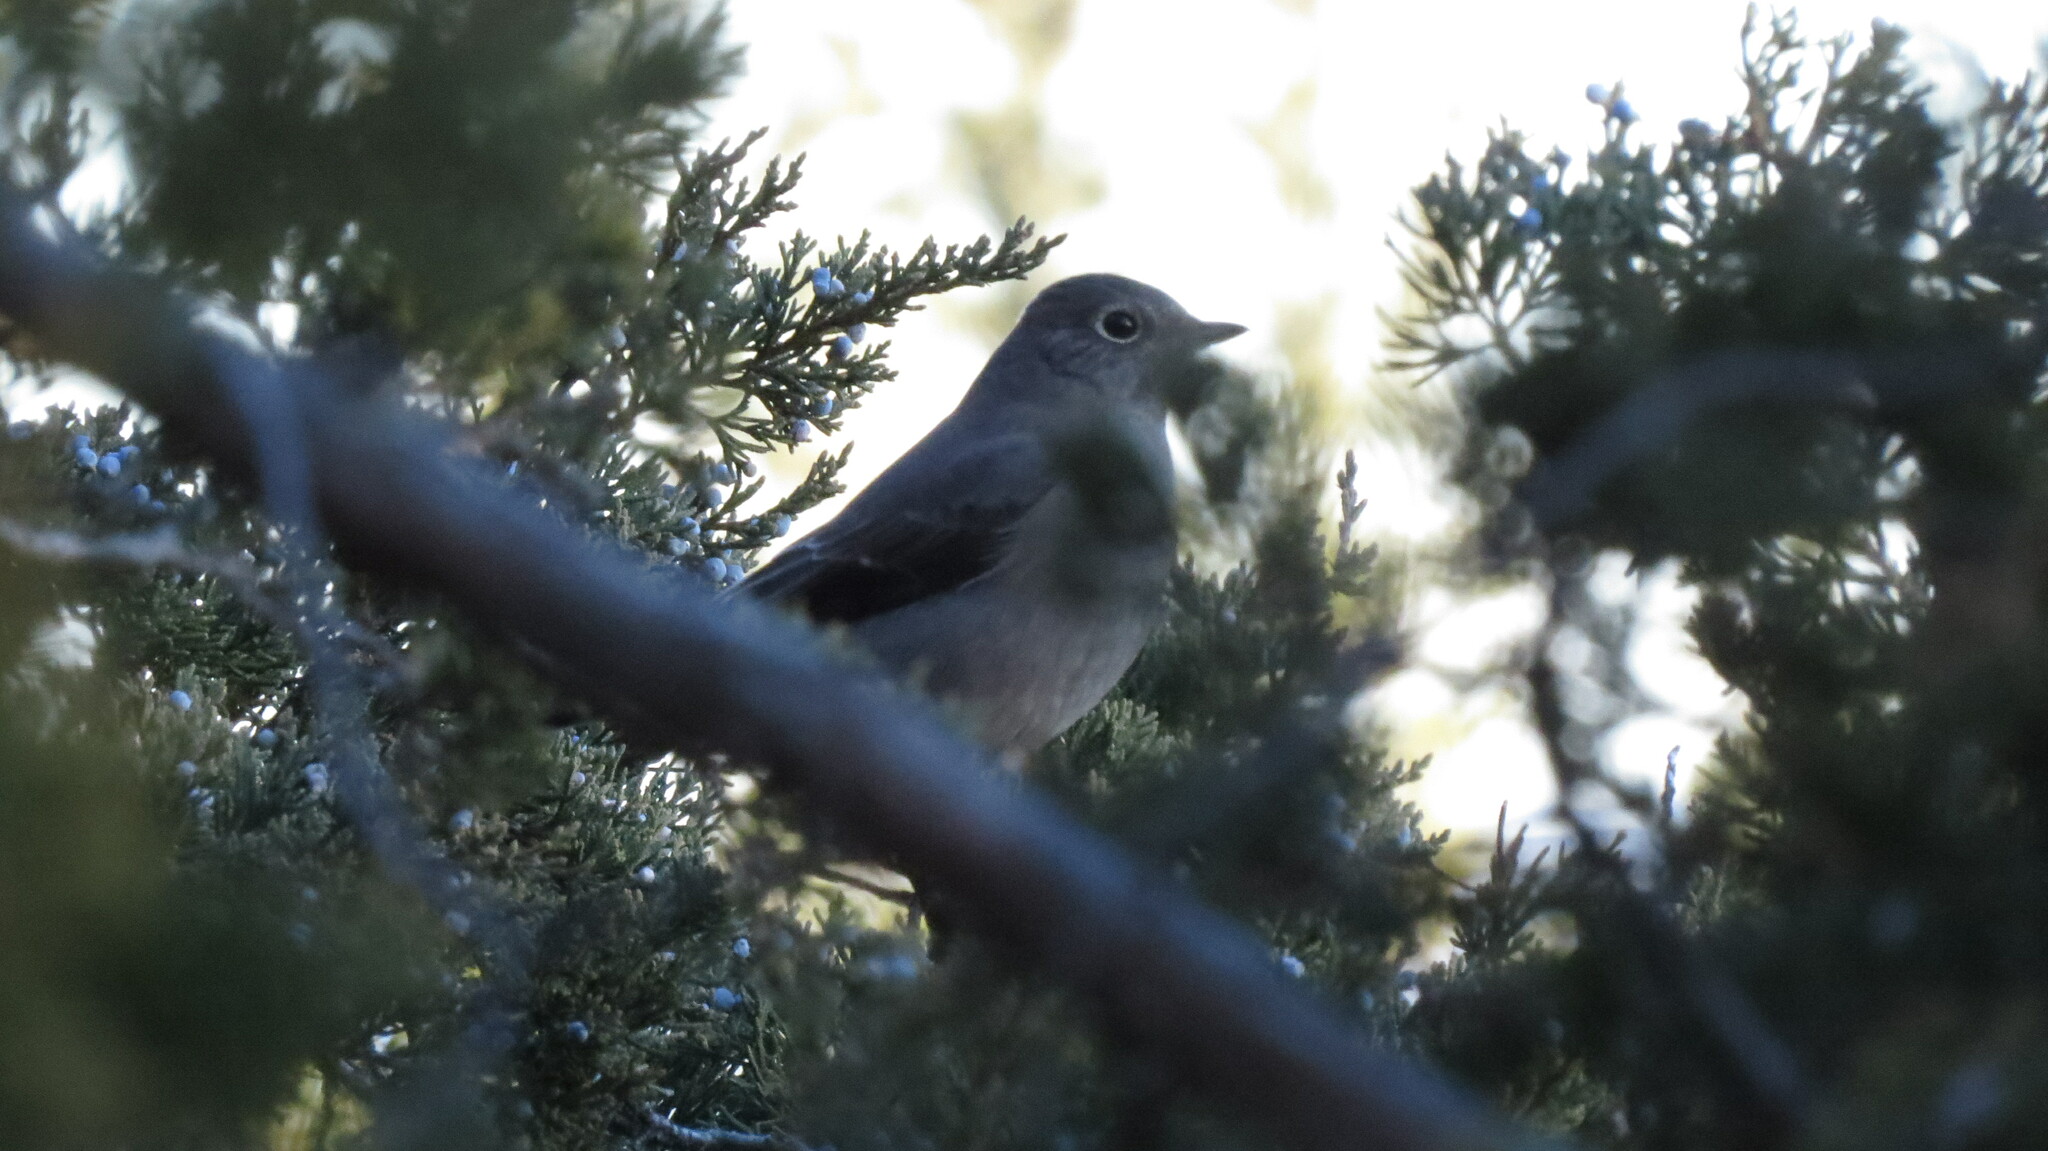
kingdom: Animalia
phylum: Chordata
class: Aves
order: Passeriformes
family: Turdidae
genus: Myadestes
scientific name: Myadestes townsendi
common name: Townsend's solitaire
